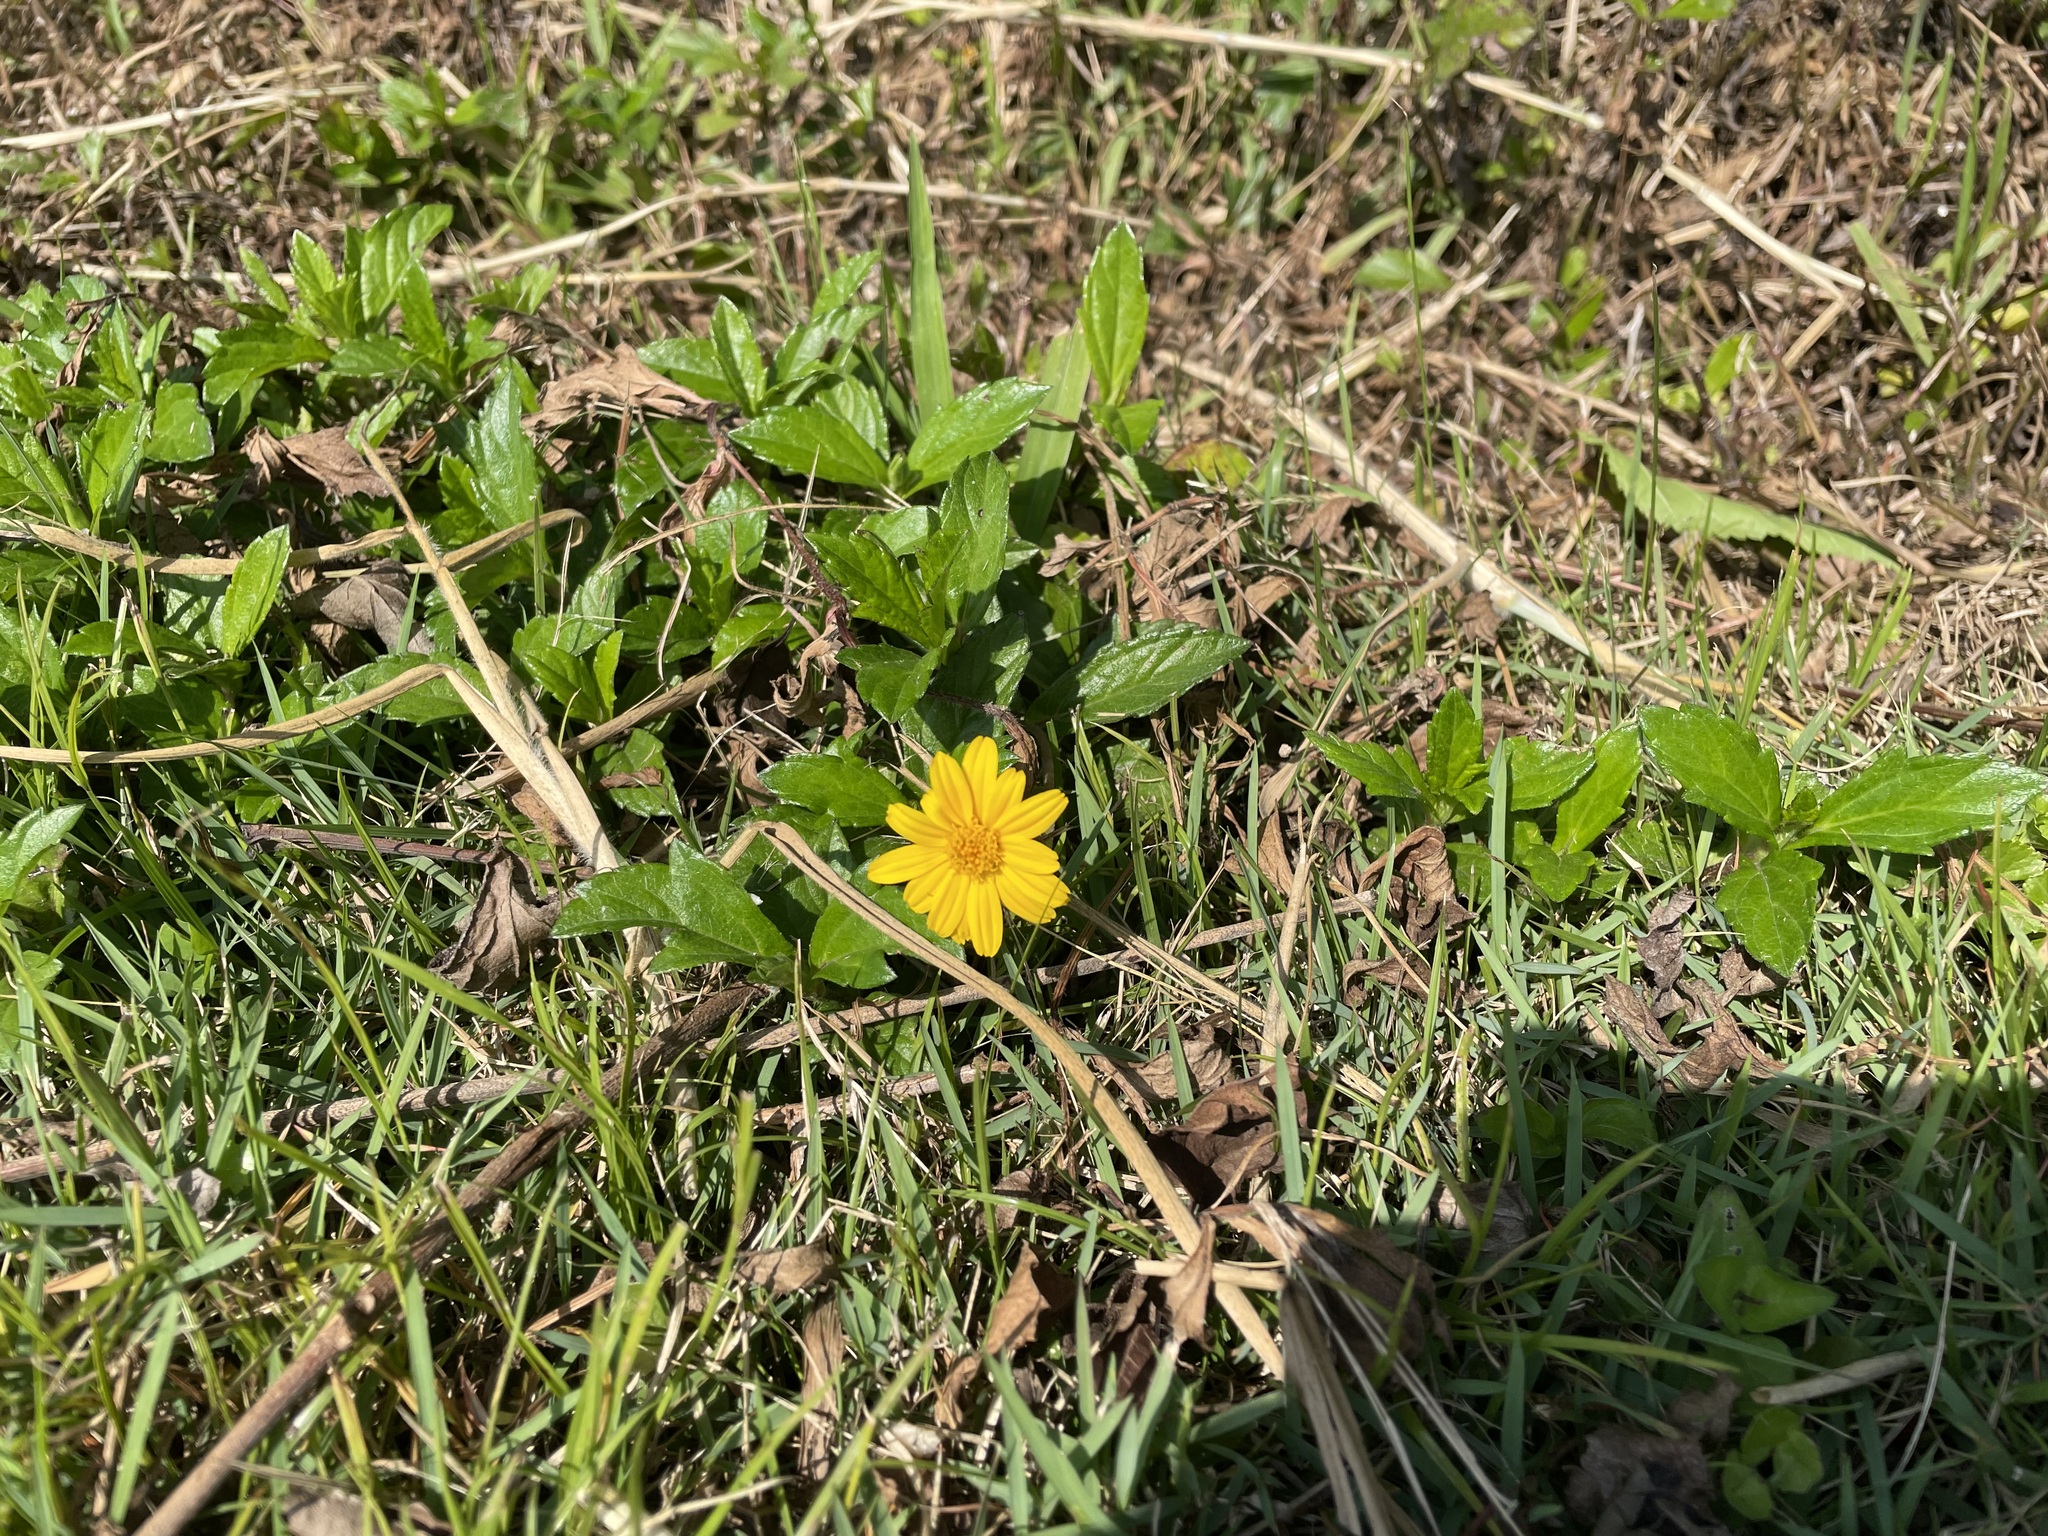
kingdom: Plantae
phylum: Tracheophyta
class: Magnoliopsida
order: Asterales
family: Asteraceae
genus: Sphagneticola
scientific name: Sphagneticola trilobata
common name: Bay biscayne creeping-oxeye
